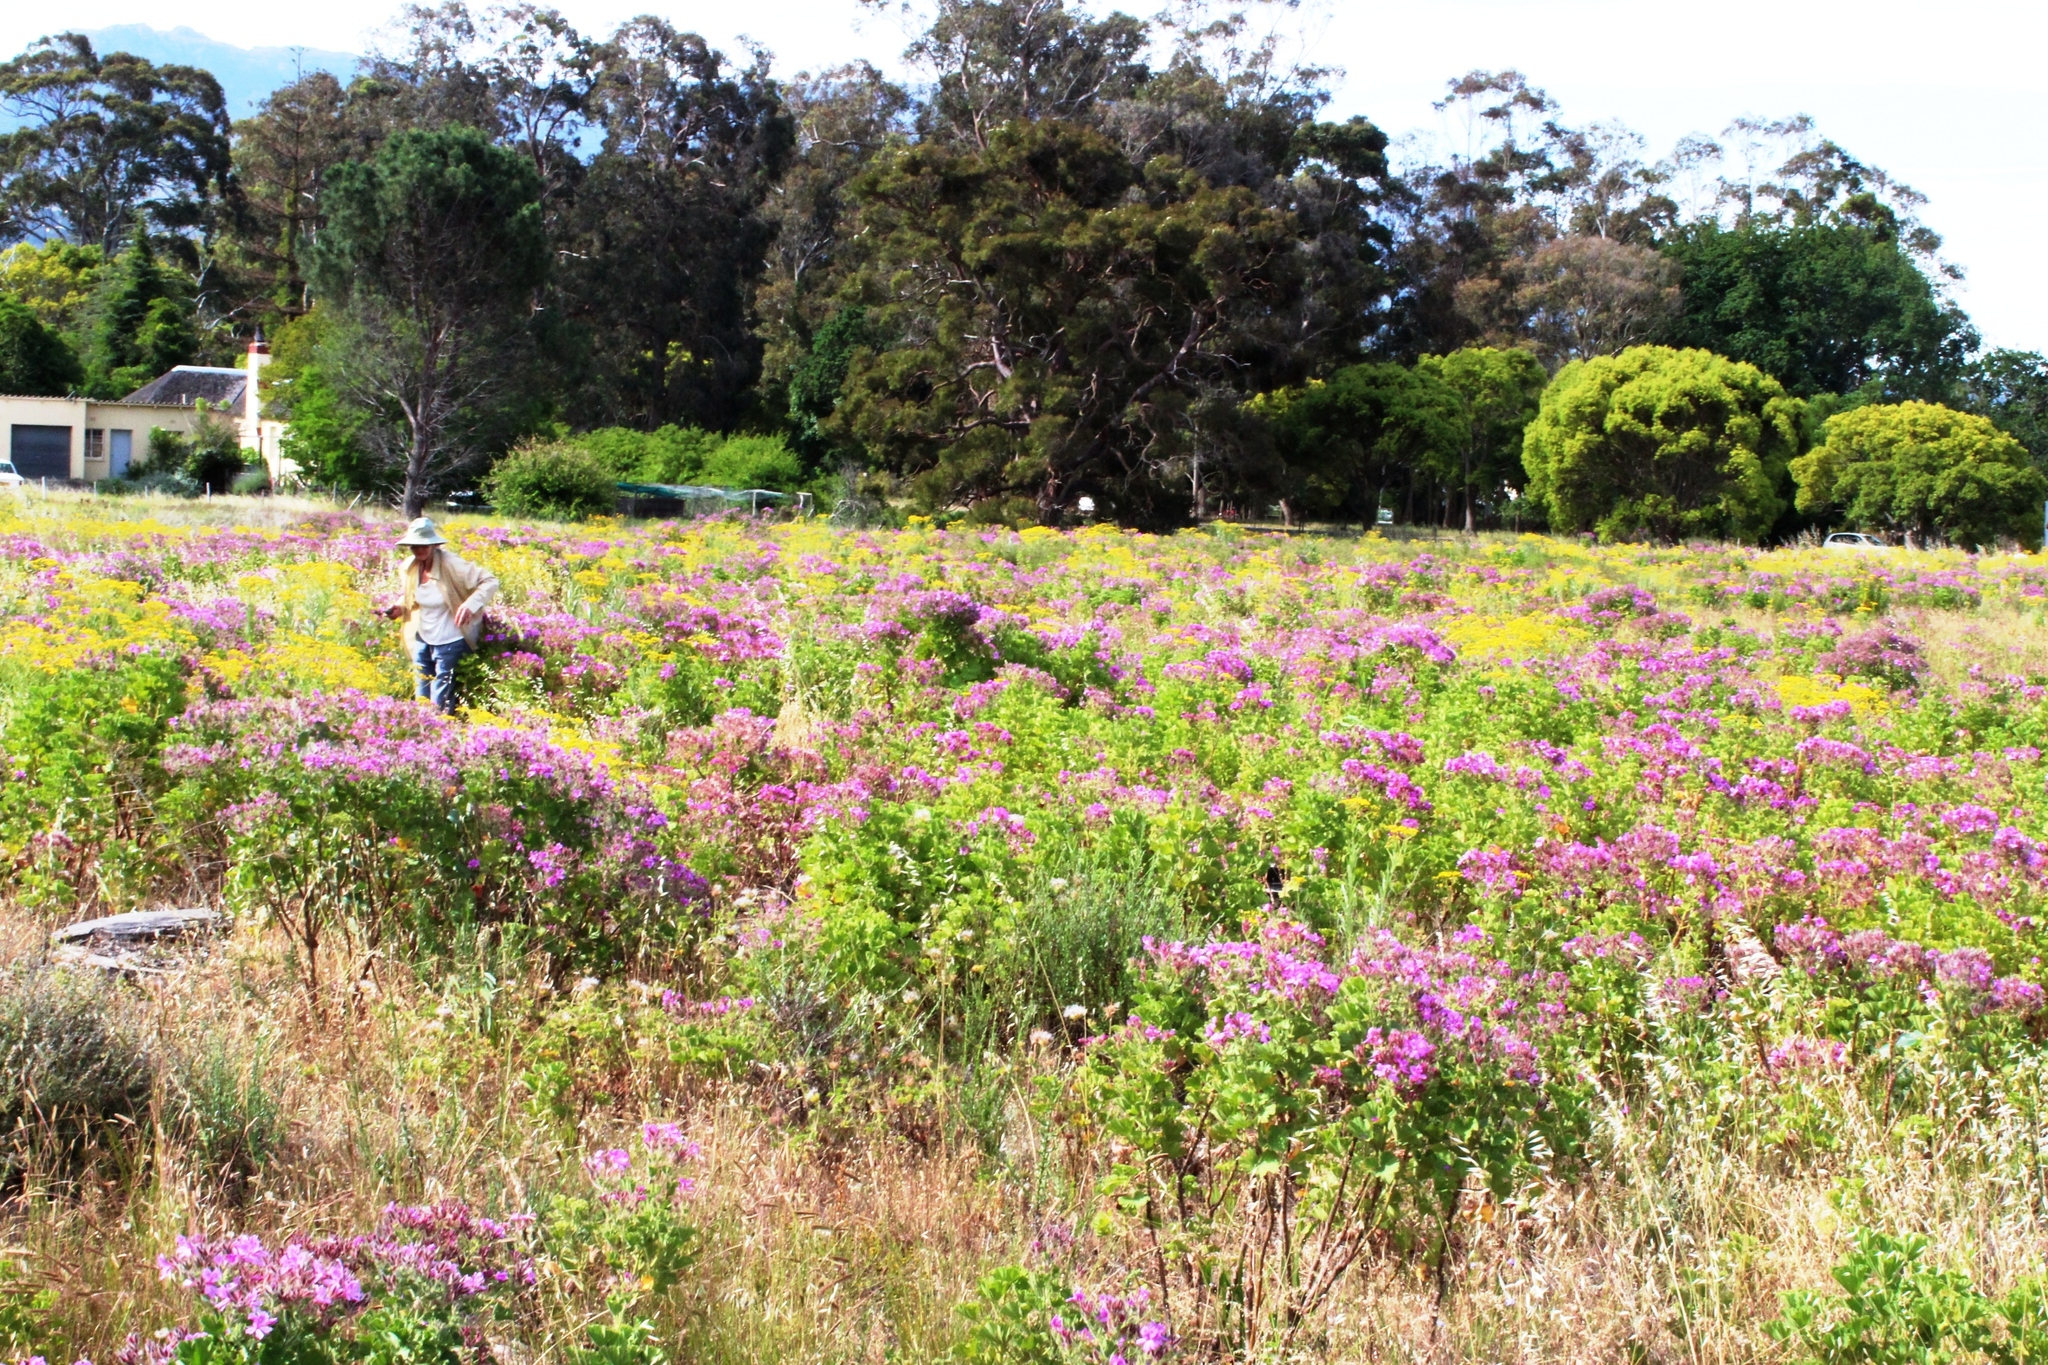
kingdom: Plantae
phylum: Tracheophyta
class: Magnoliopsida
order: Geraniales
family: Geraniaceae
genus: Pelargonium
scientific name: Pelargonium cucullatum
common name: Tree pelargonium
